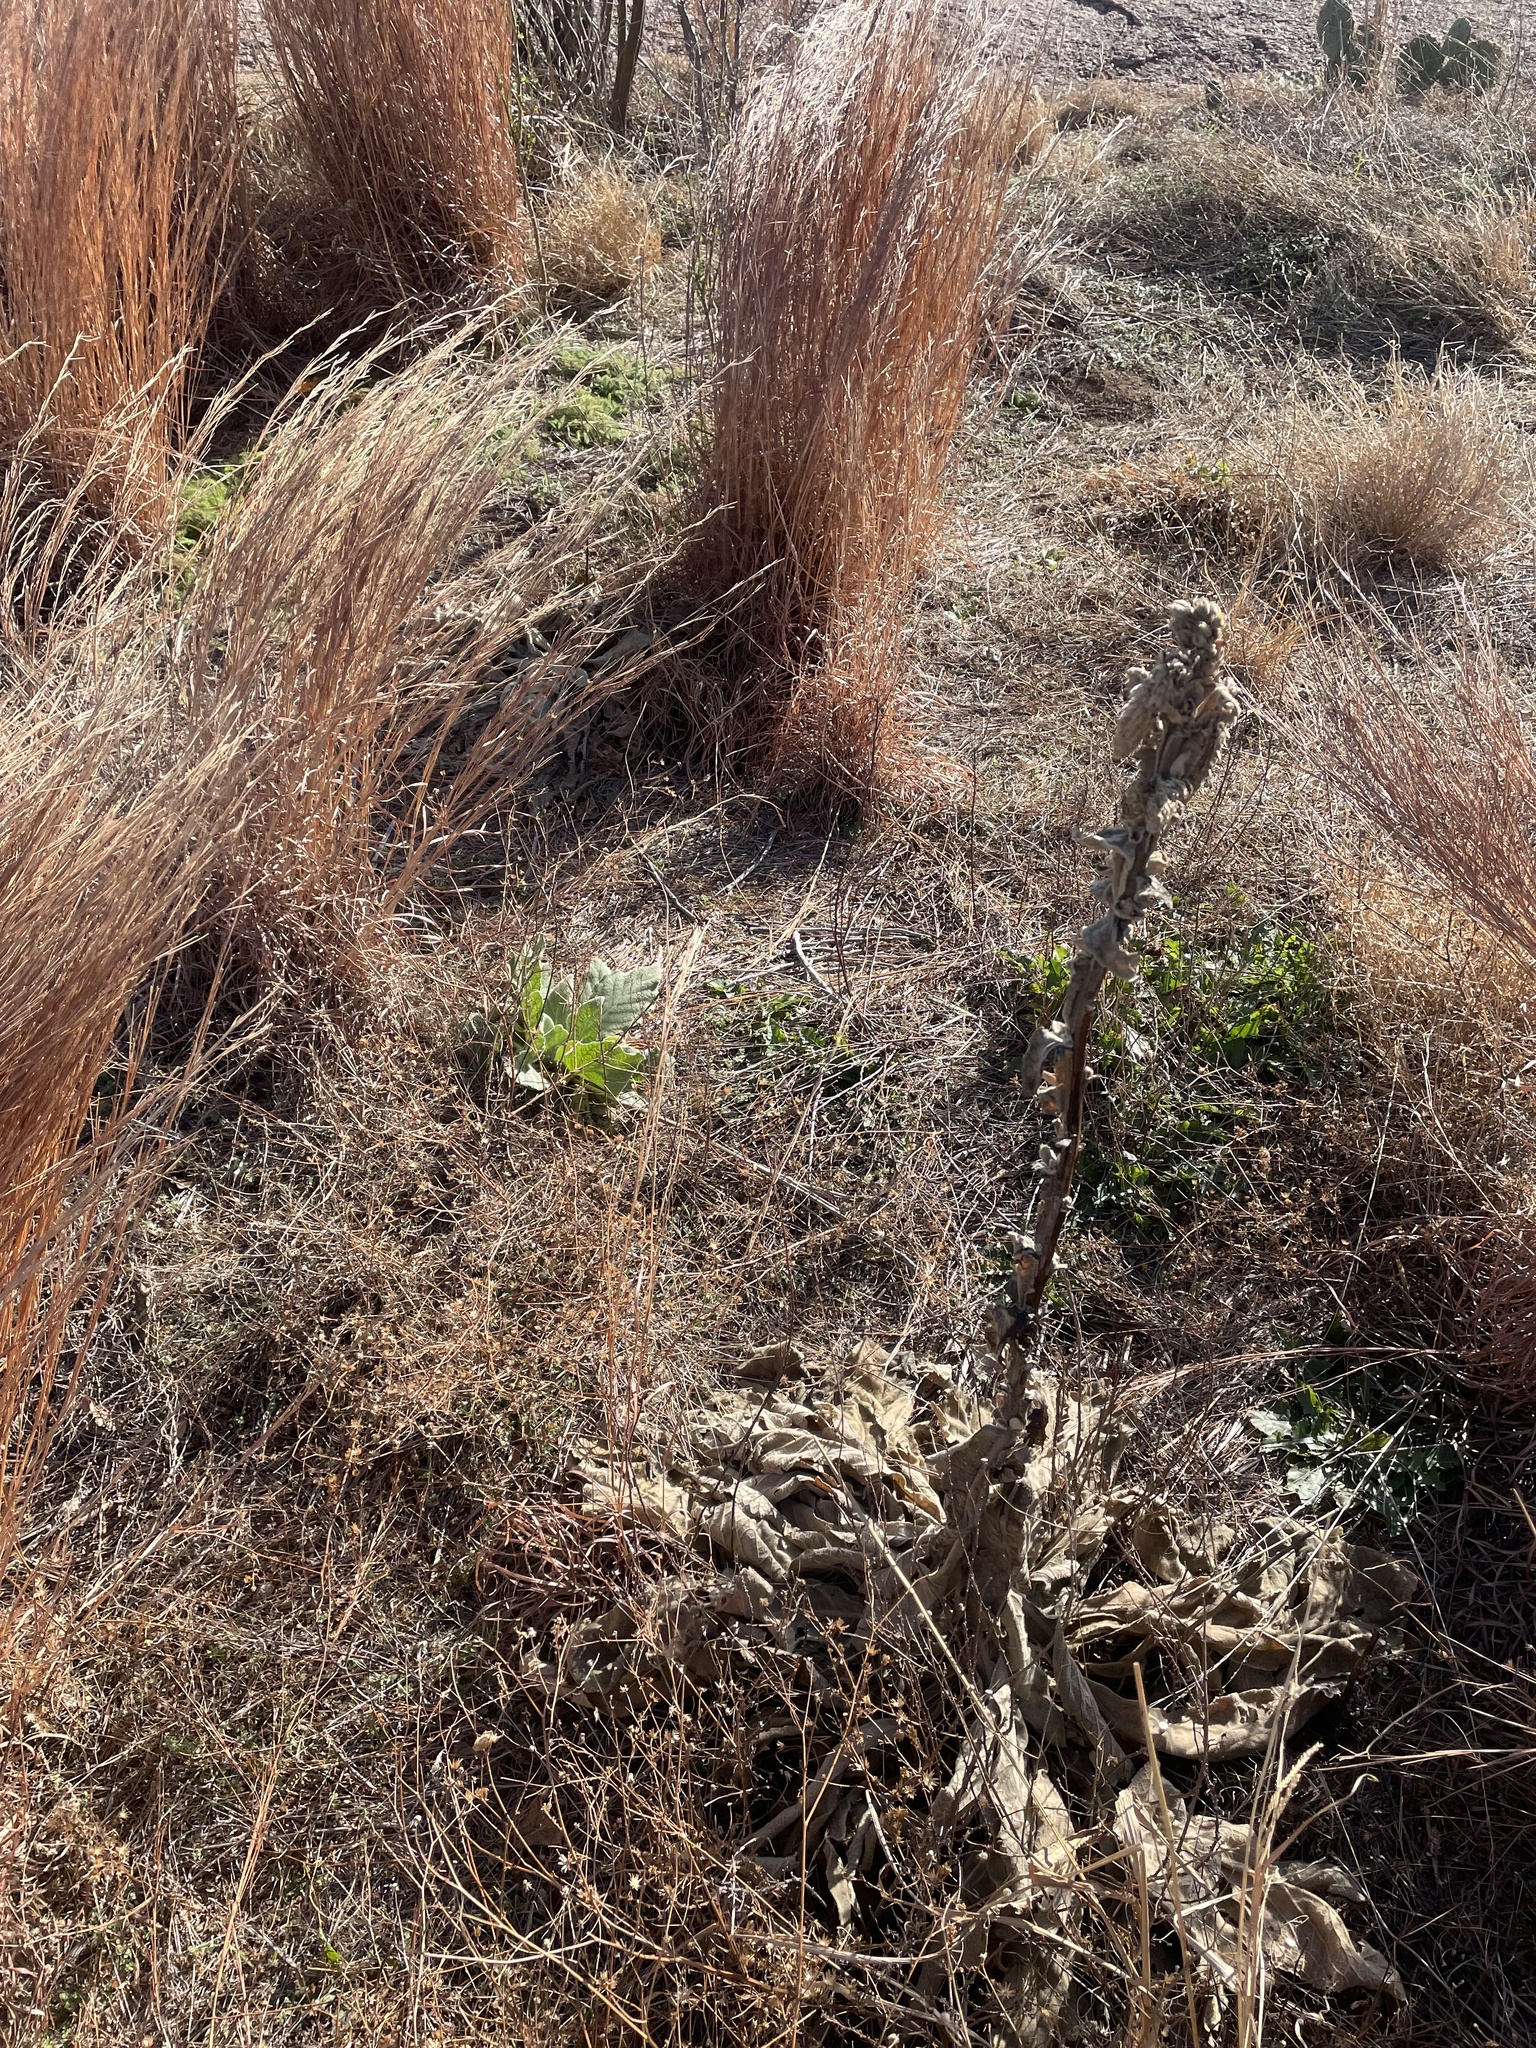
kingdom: Plantae
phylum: Tracheophyta
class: Magnoliopsida
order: Lamiales
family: Scrophulariaceae
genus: Verbascum
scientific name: Verbascum thapsus
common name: Common mullein
